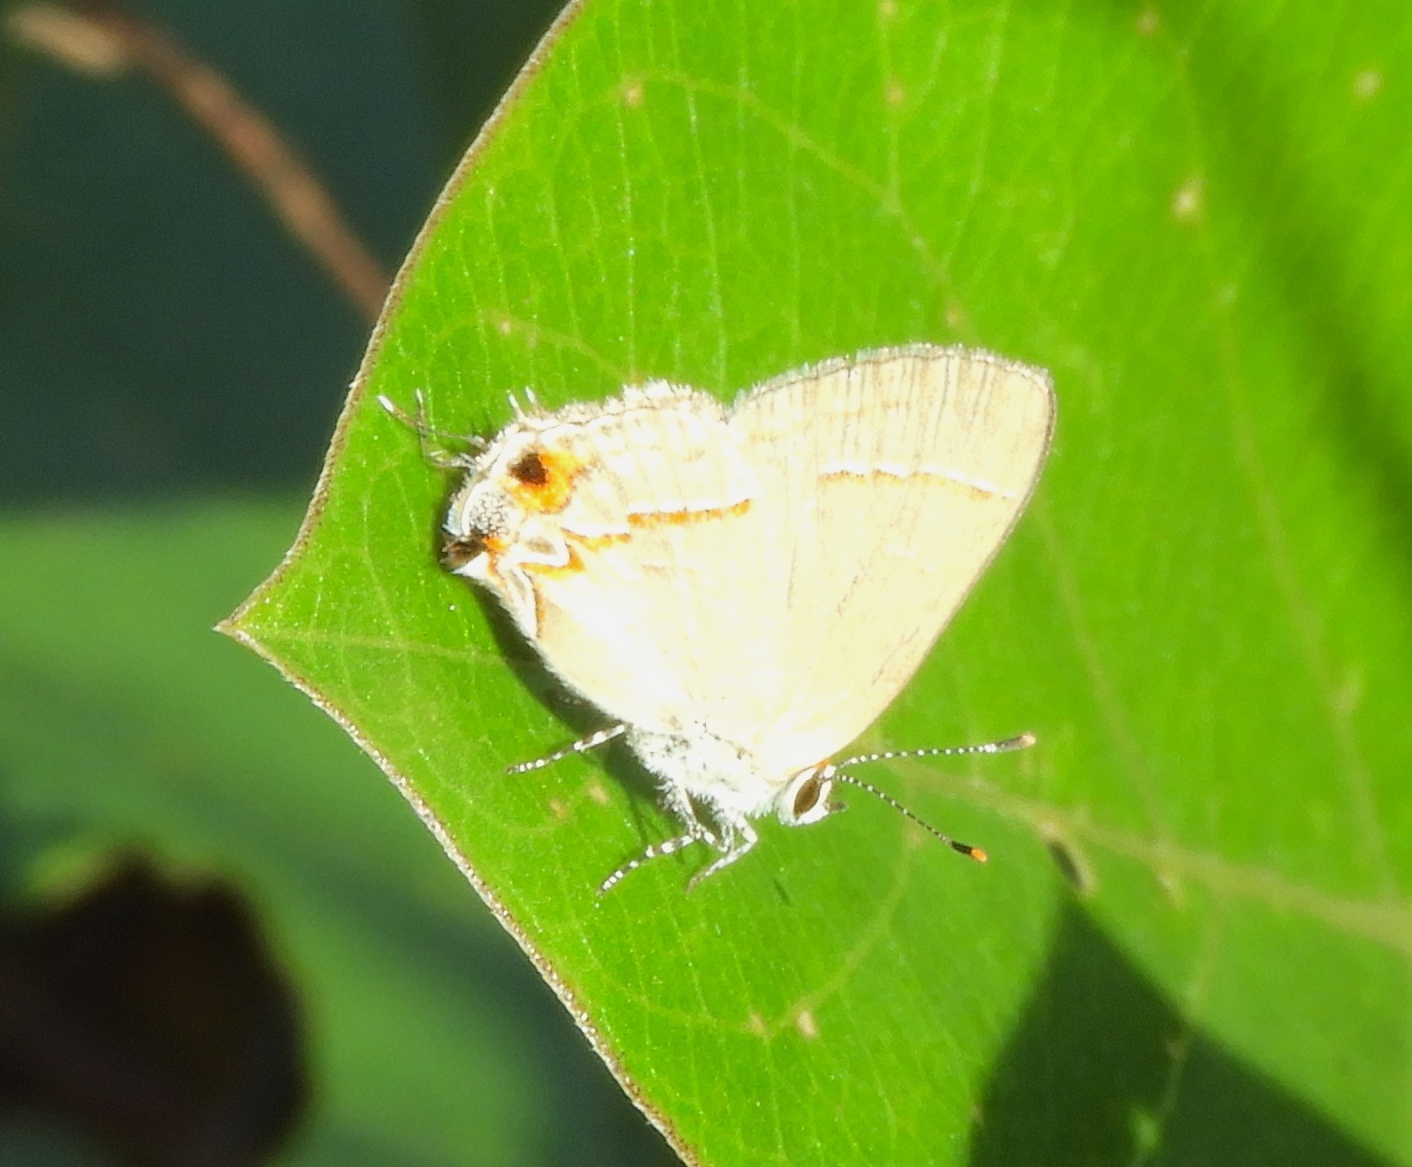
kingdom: Animalia
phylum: Arthropoda
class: Insecta
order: Lepidoptera
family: Lycaenidae
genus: Electrostrymon
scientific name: Electrostrymon endymion
